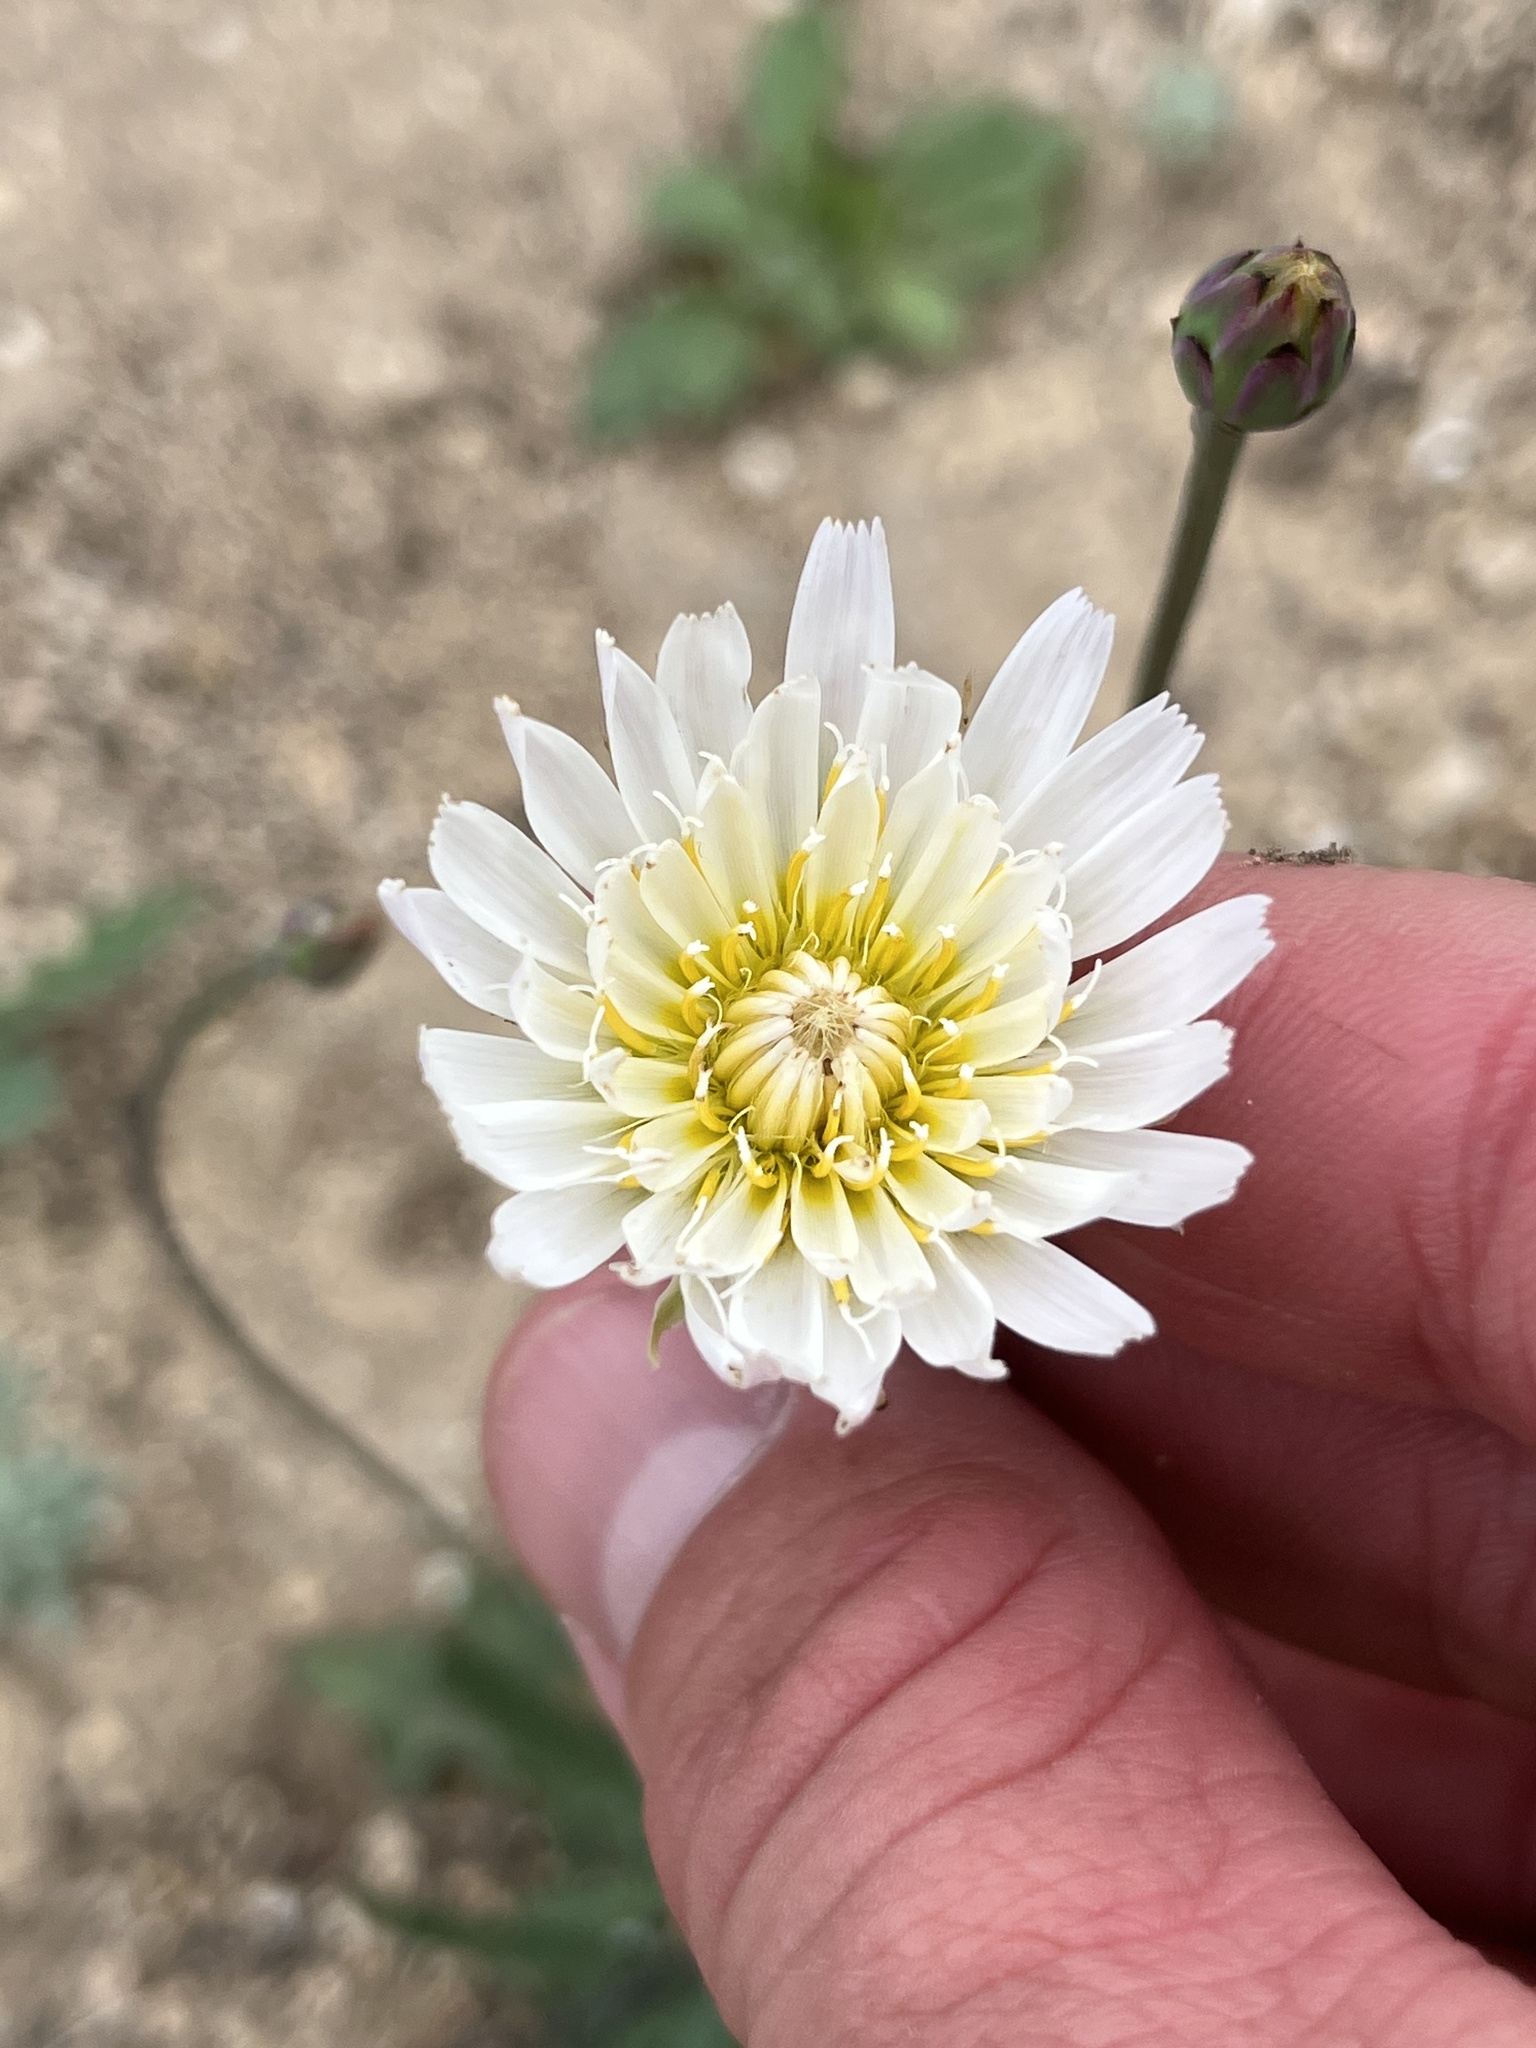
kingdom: Plantae
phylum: Tracheophyta
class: Magnoliopsida
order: Asterales
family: Asteraceae
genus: Pinaropappus
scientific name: Pinaropappus roseus
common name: Rock-lettuce
